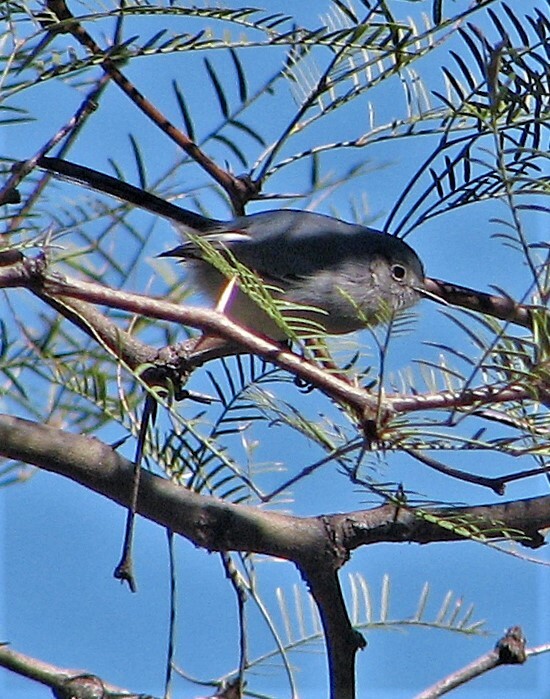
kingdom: Animalia
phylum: Chordata
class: Aves
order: Passeriformes
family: Polioptilidae
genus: Polioptila
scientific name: Polioptila dumicola
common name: Masked gnatcatcher
